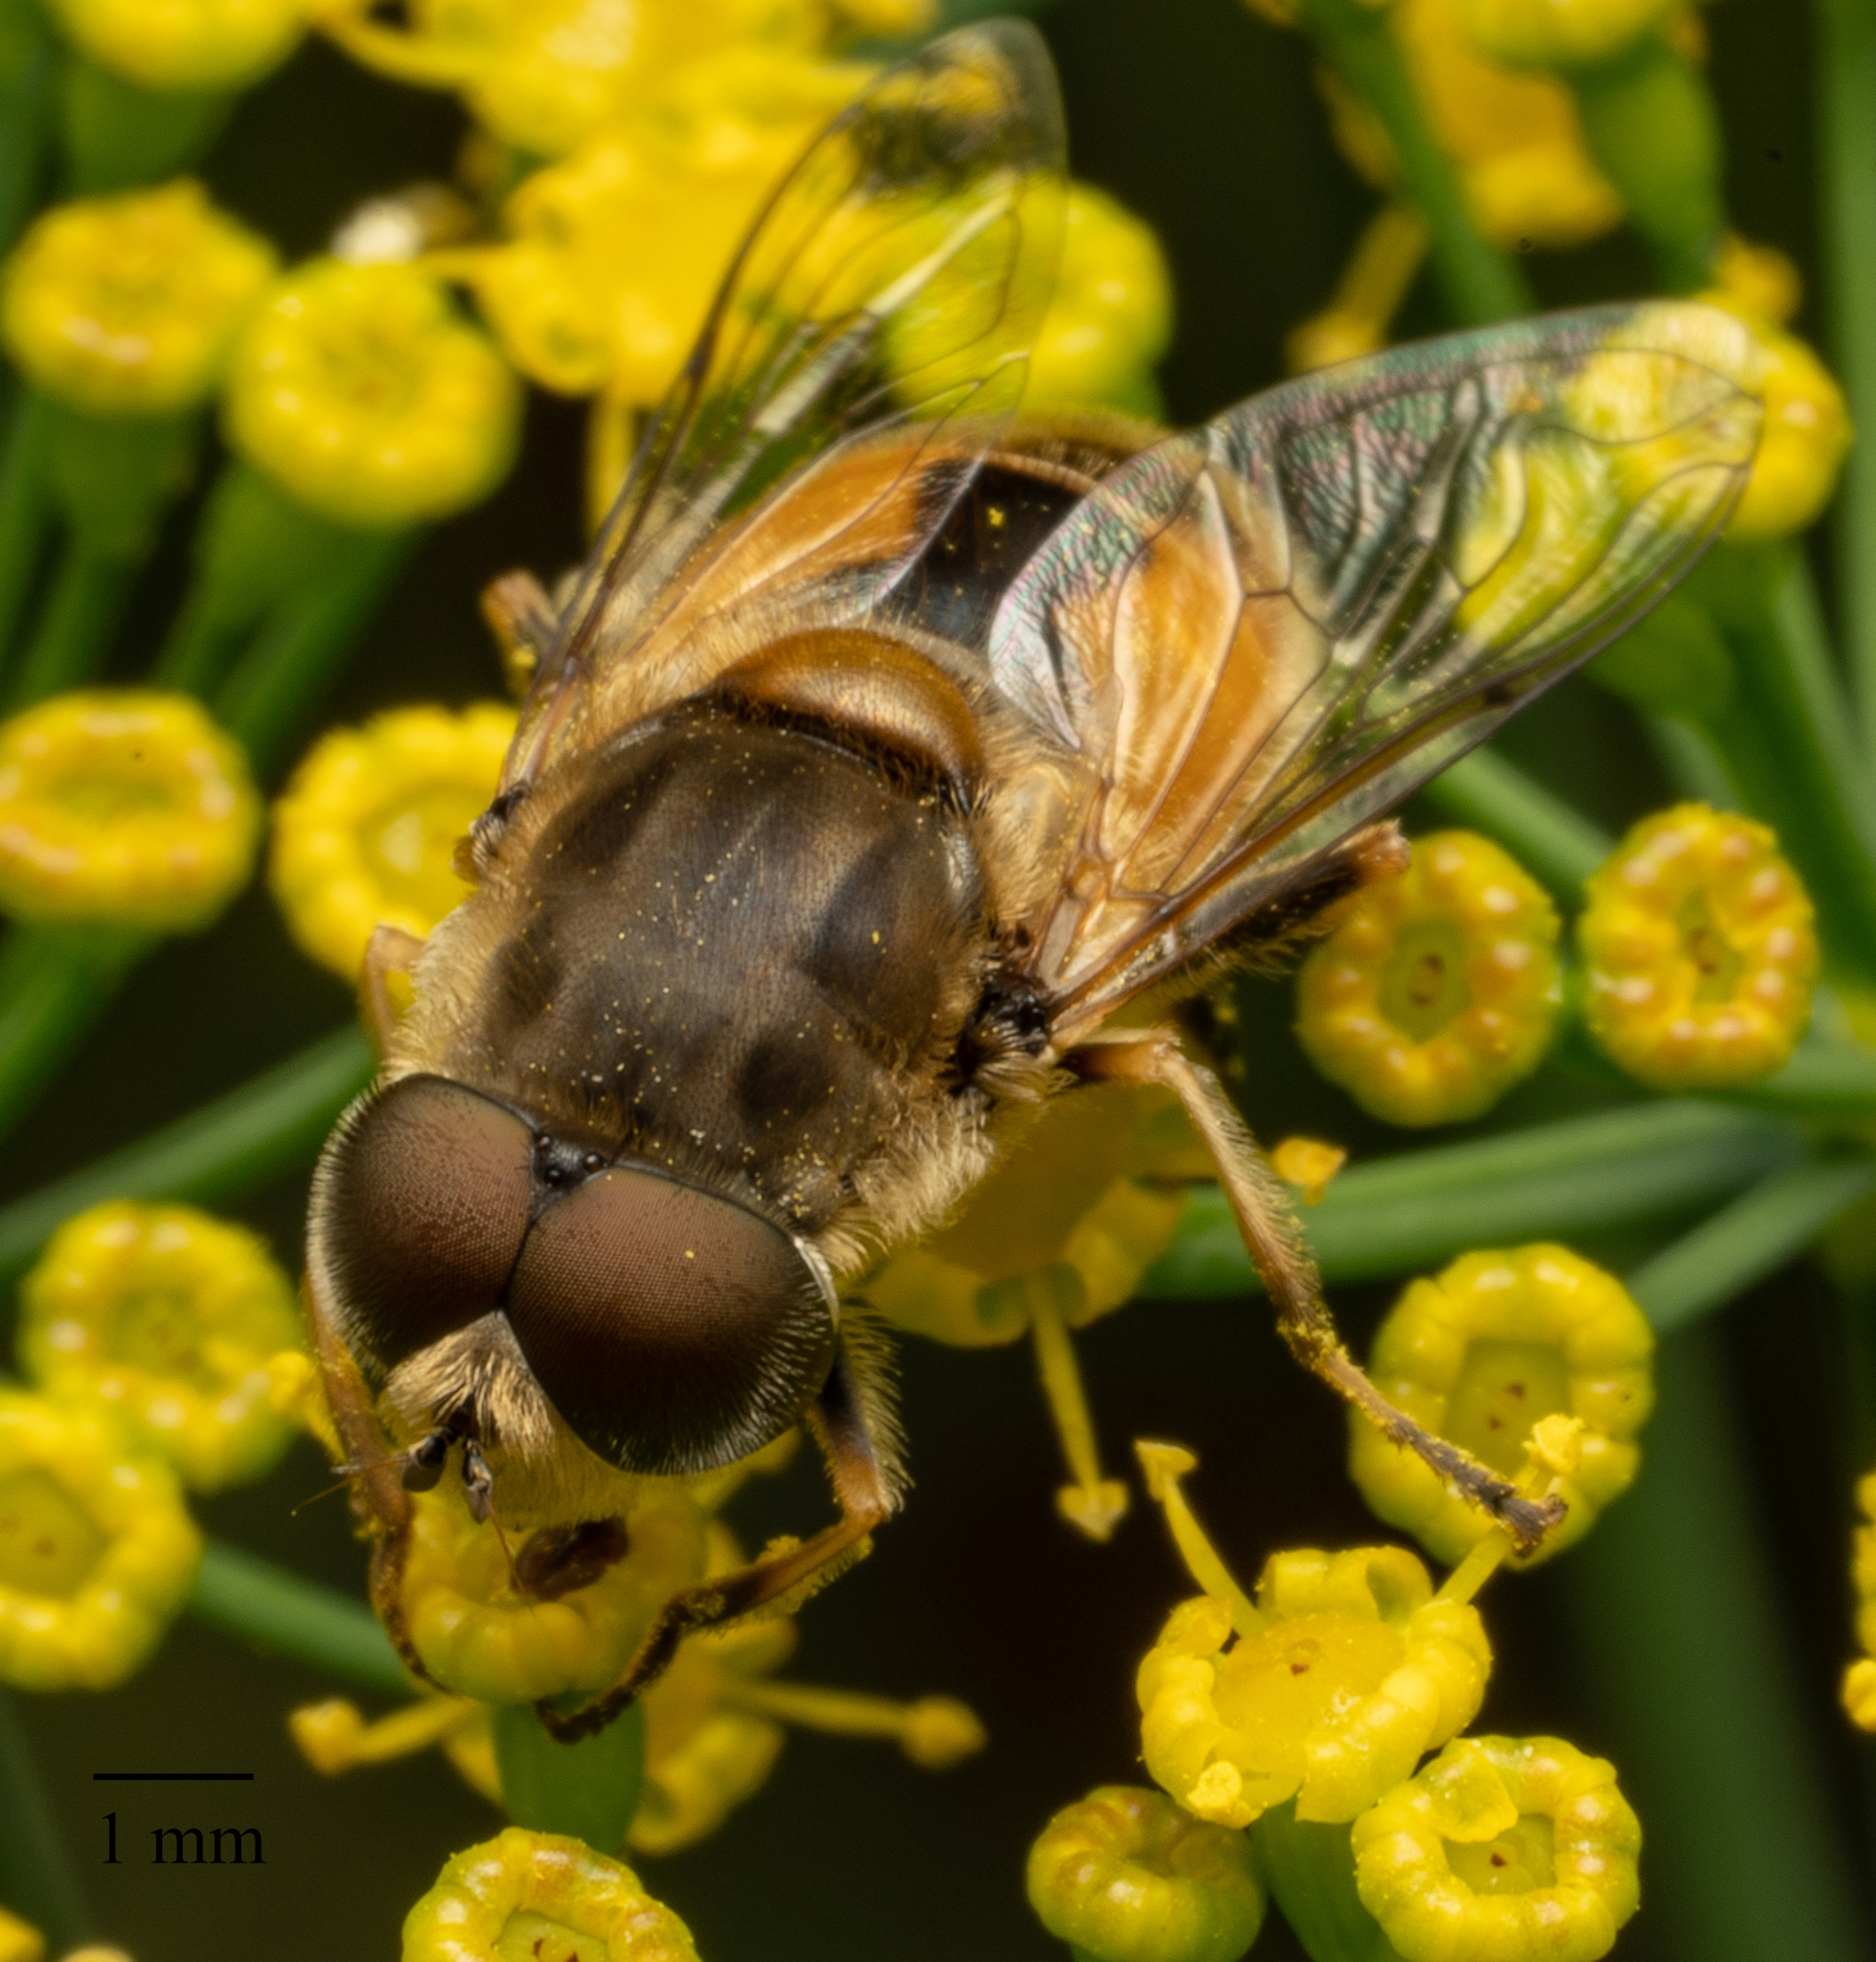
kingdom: Animalia
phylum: Arthropoda
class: Insecta
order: Diptera
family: Syrphidae
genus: Eristalis
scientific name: Eristalis arbustorum
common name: Hover fly
